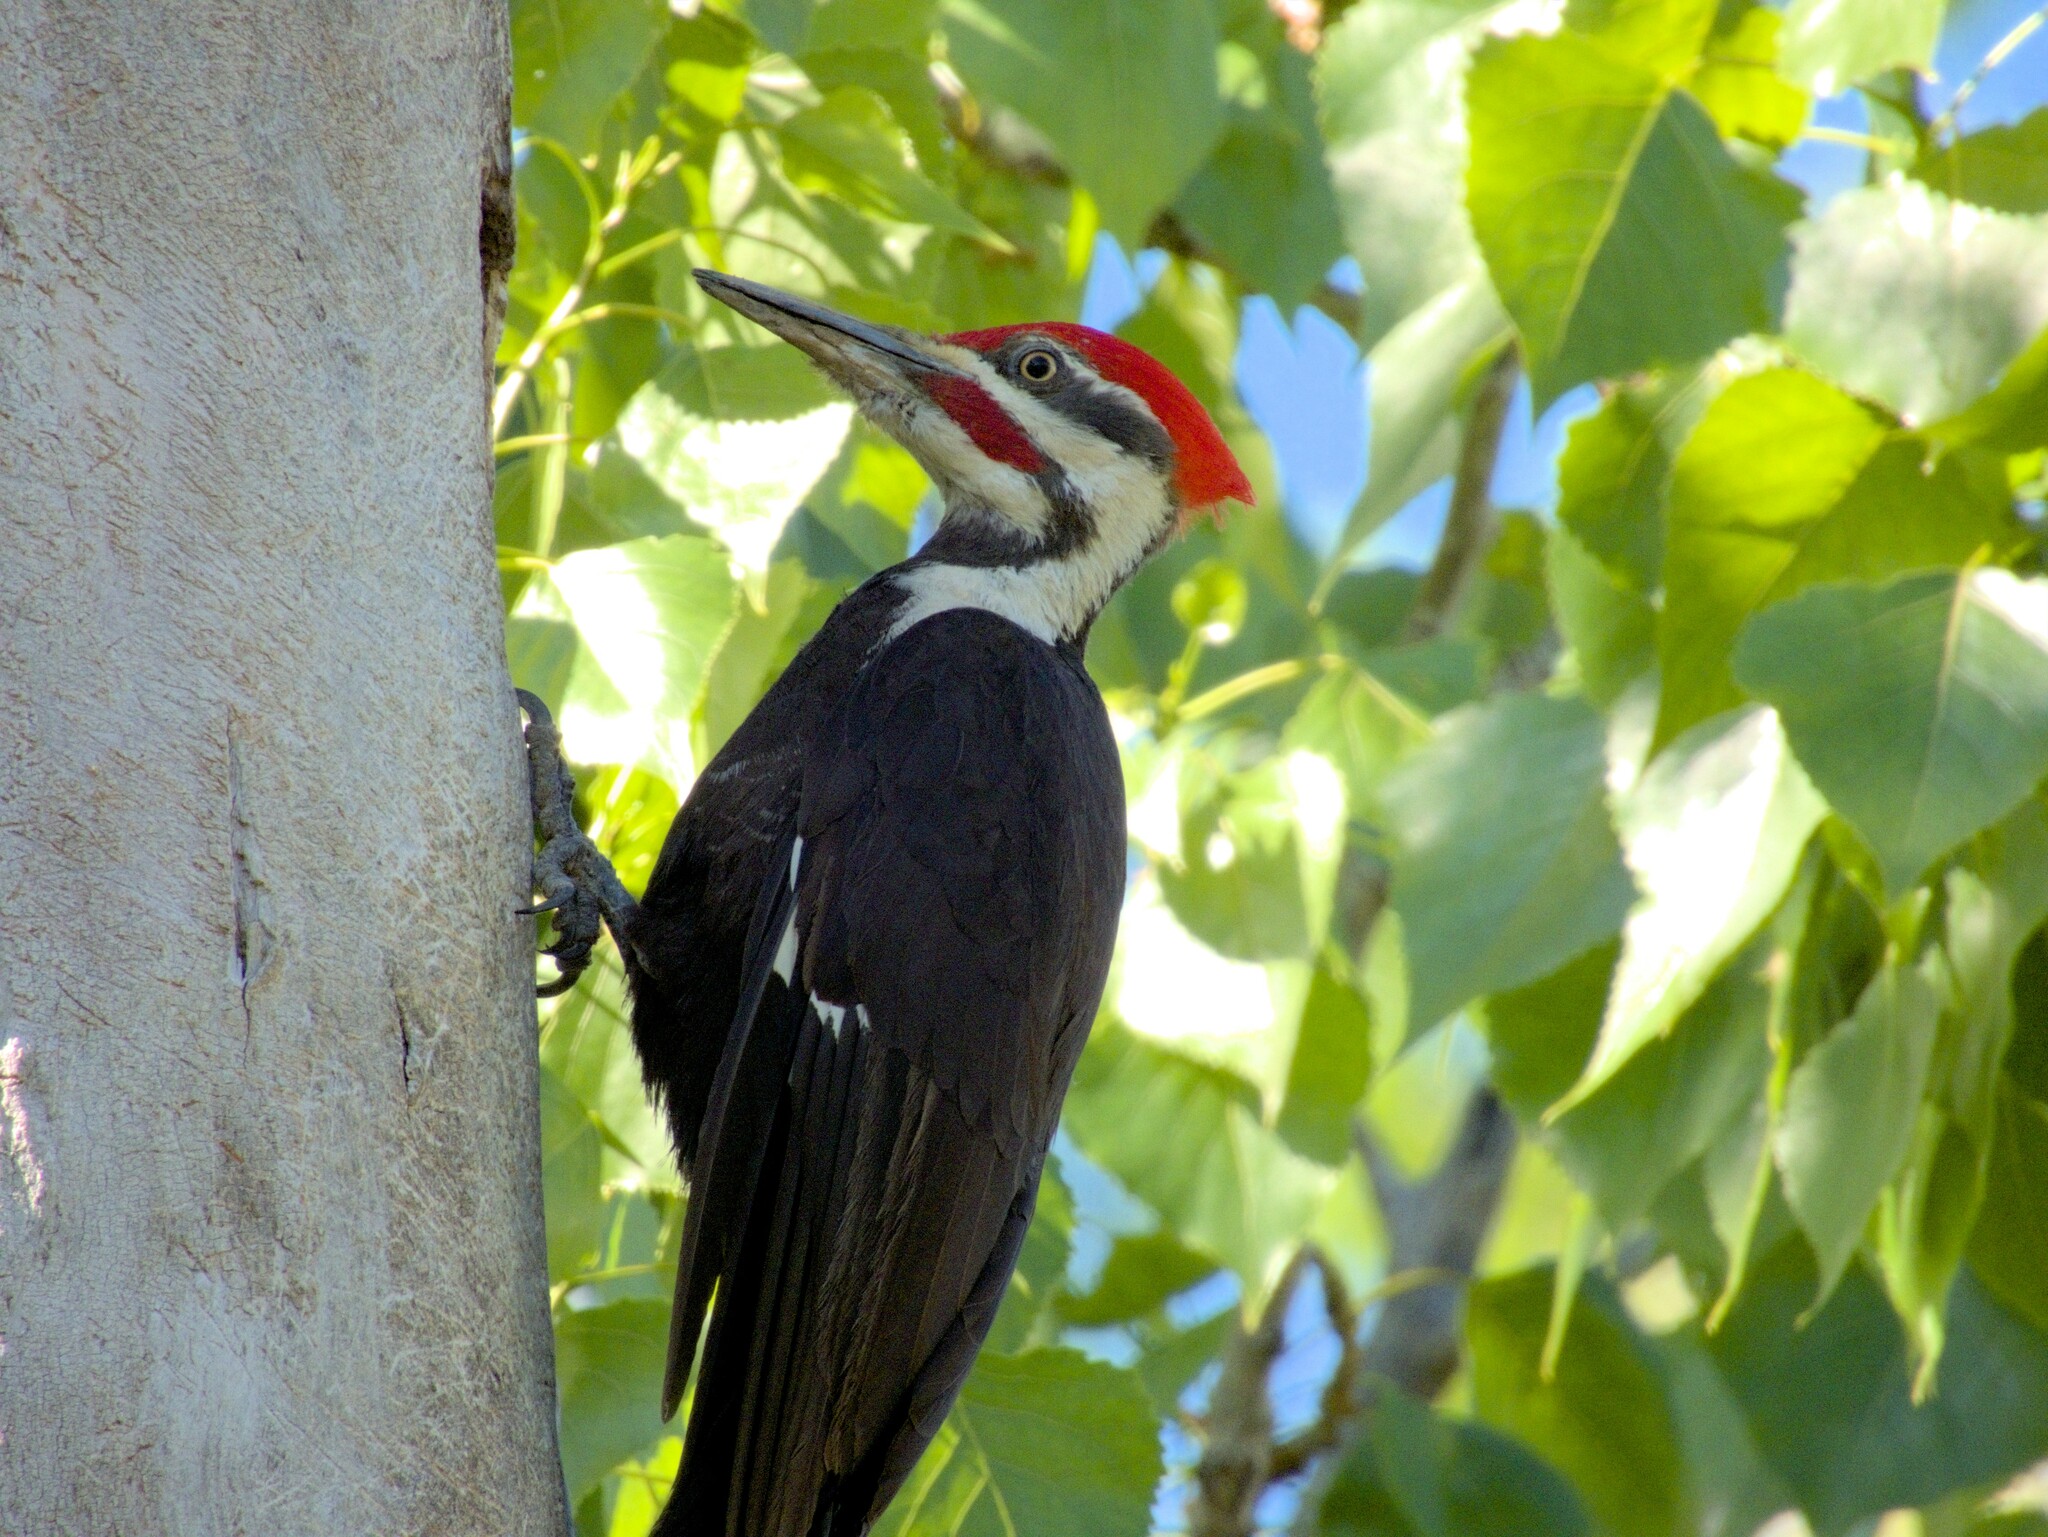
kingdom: Animalia
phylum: Chordata
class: Aves
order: Piciformes
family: Picidae
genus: Dryocopus
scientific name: Dryocopus pileatus
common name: Pileated woodpecker
